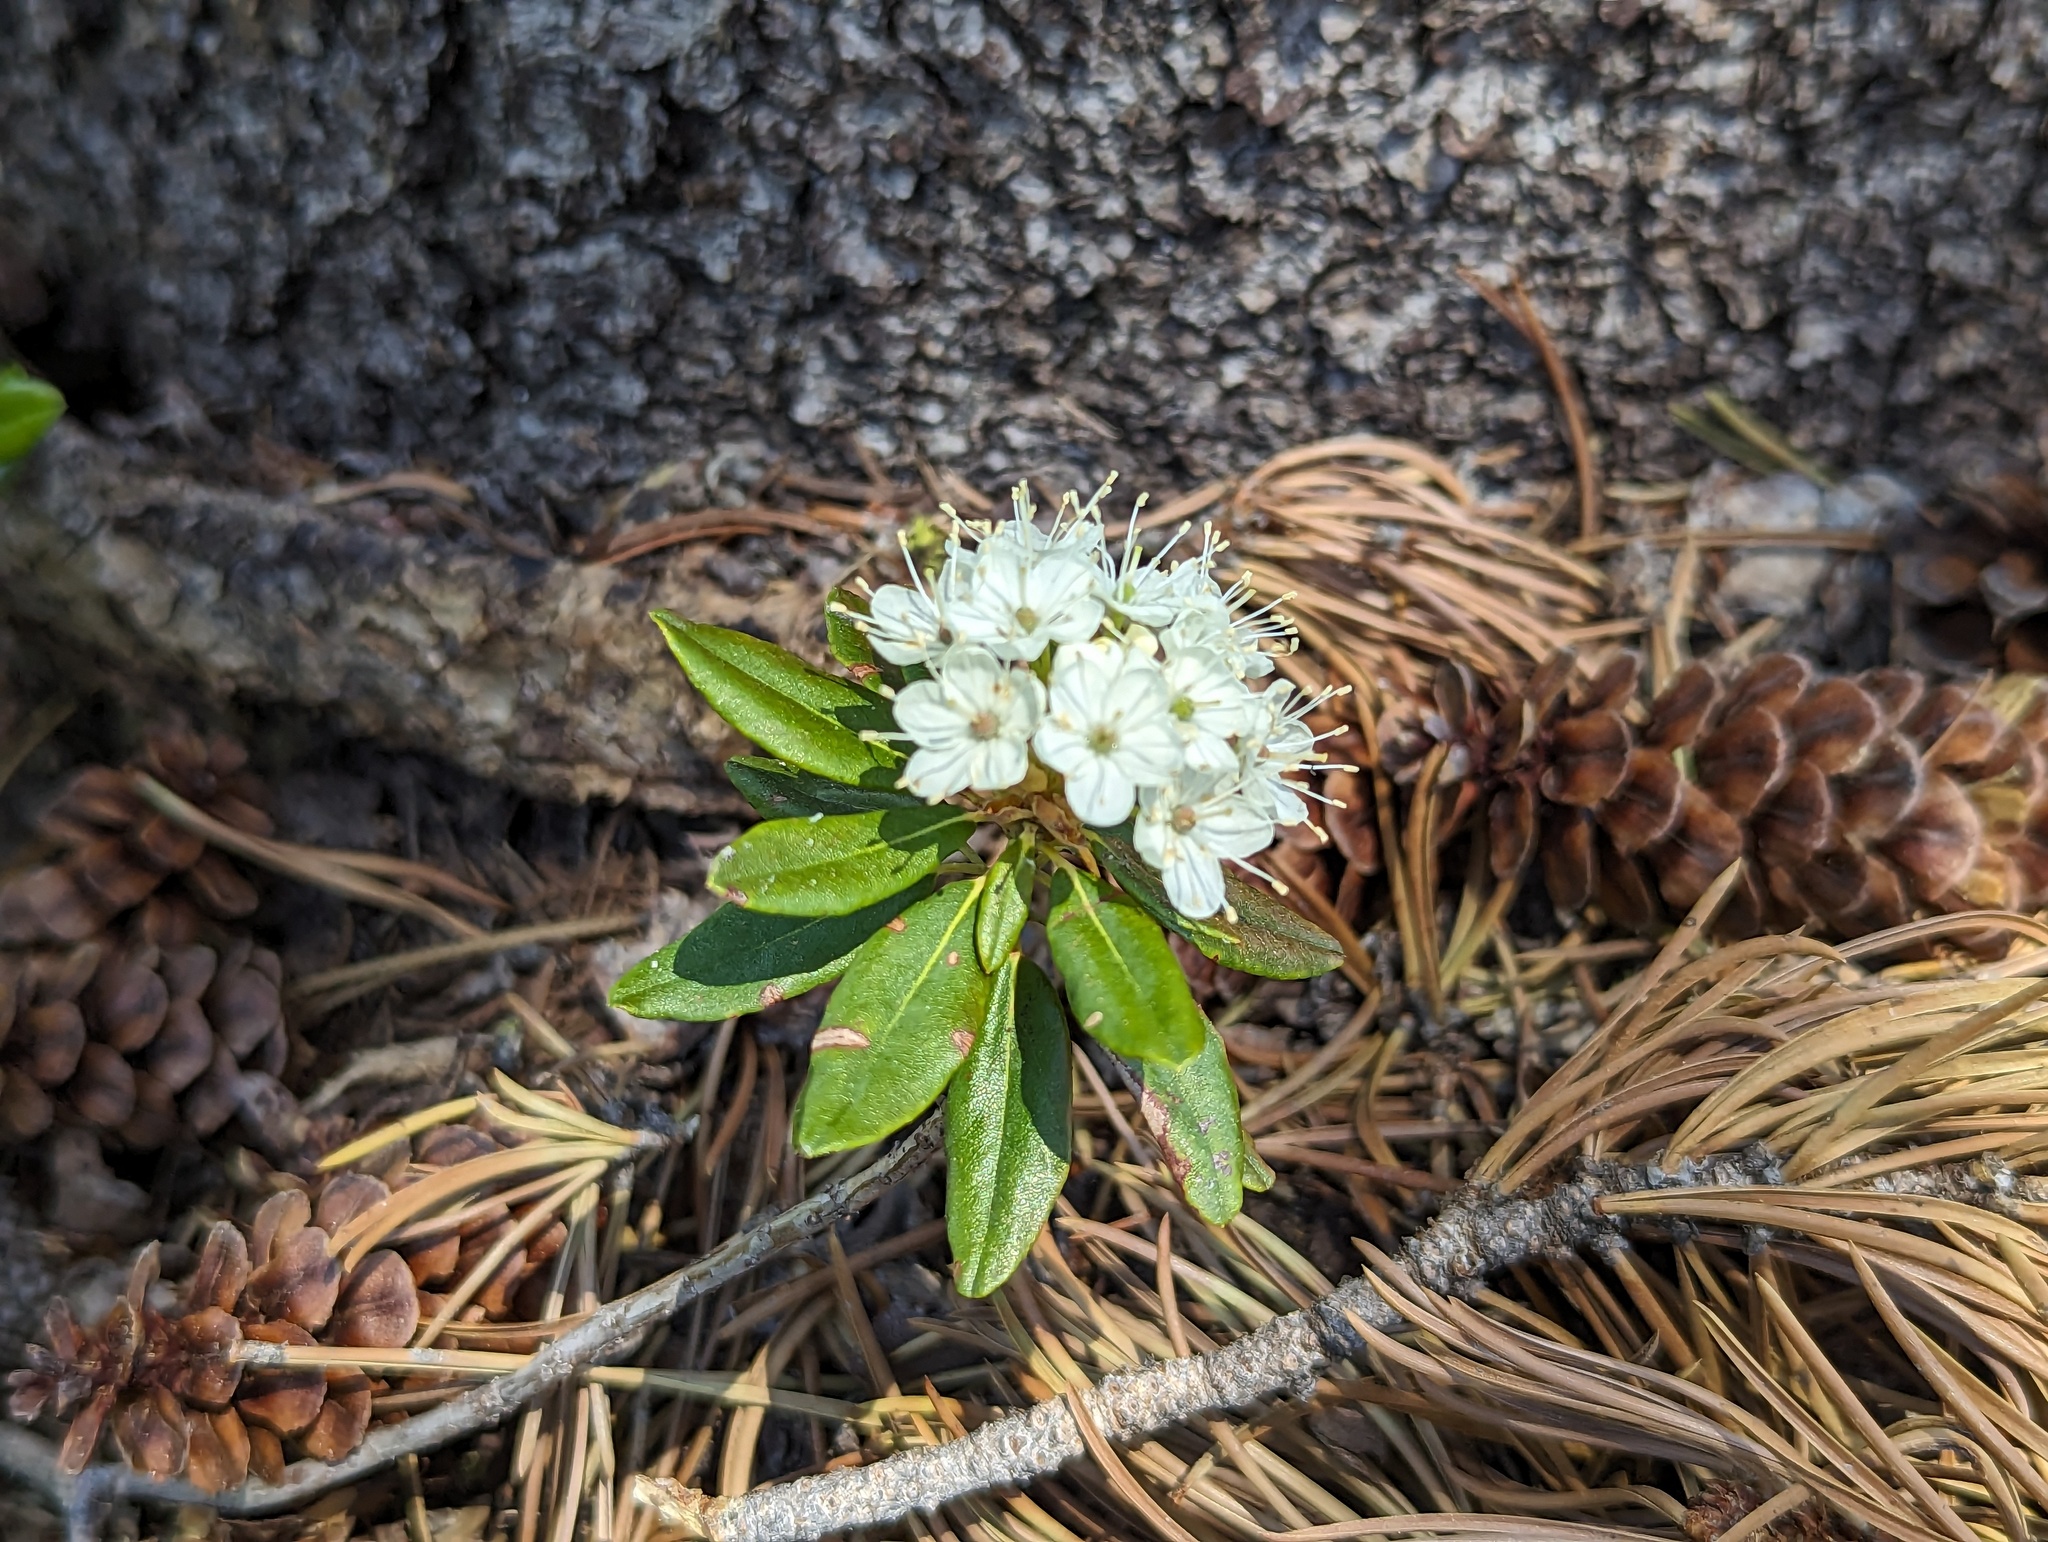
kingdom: Plantae
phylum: Tracheophyta
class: Magnoliopsida
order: Ericales
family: Ericaceae
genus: Rhododendron
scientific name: Rhododendron columbianum
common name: Western labrador tea
